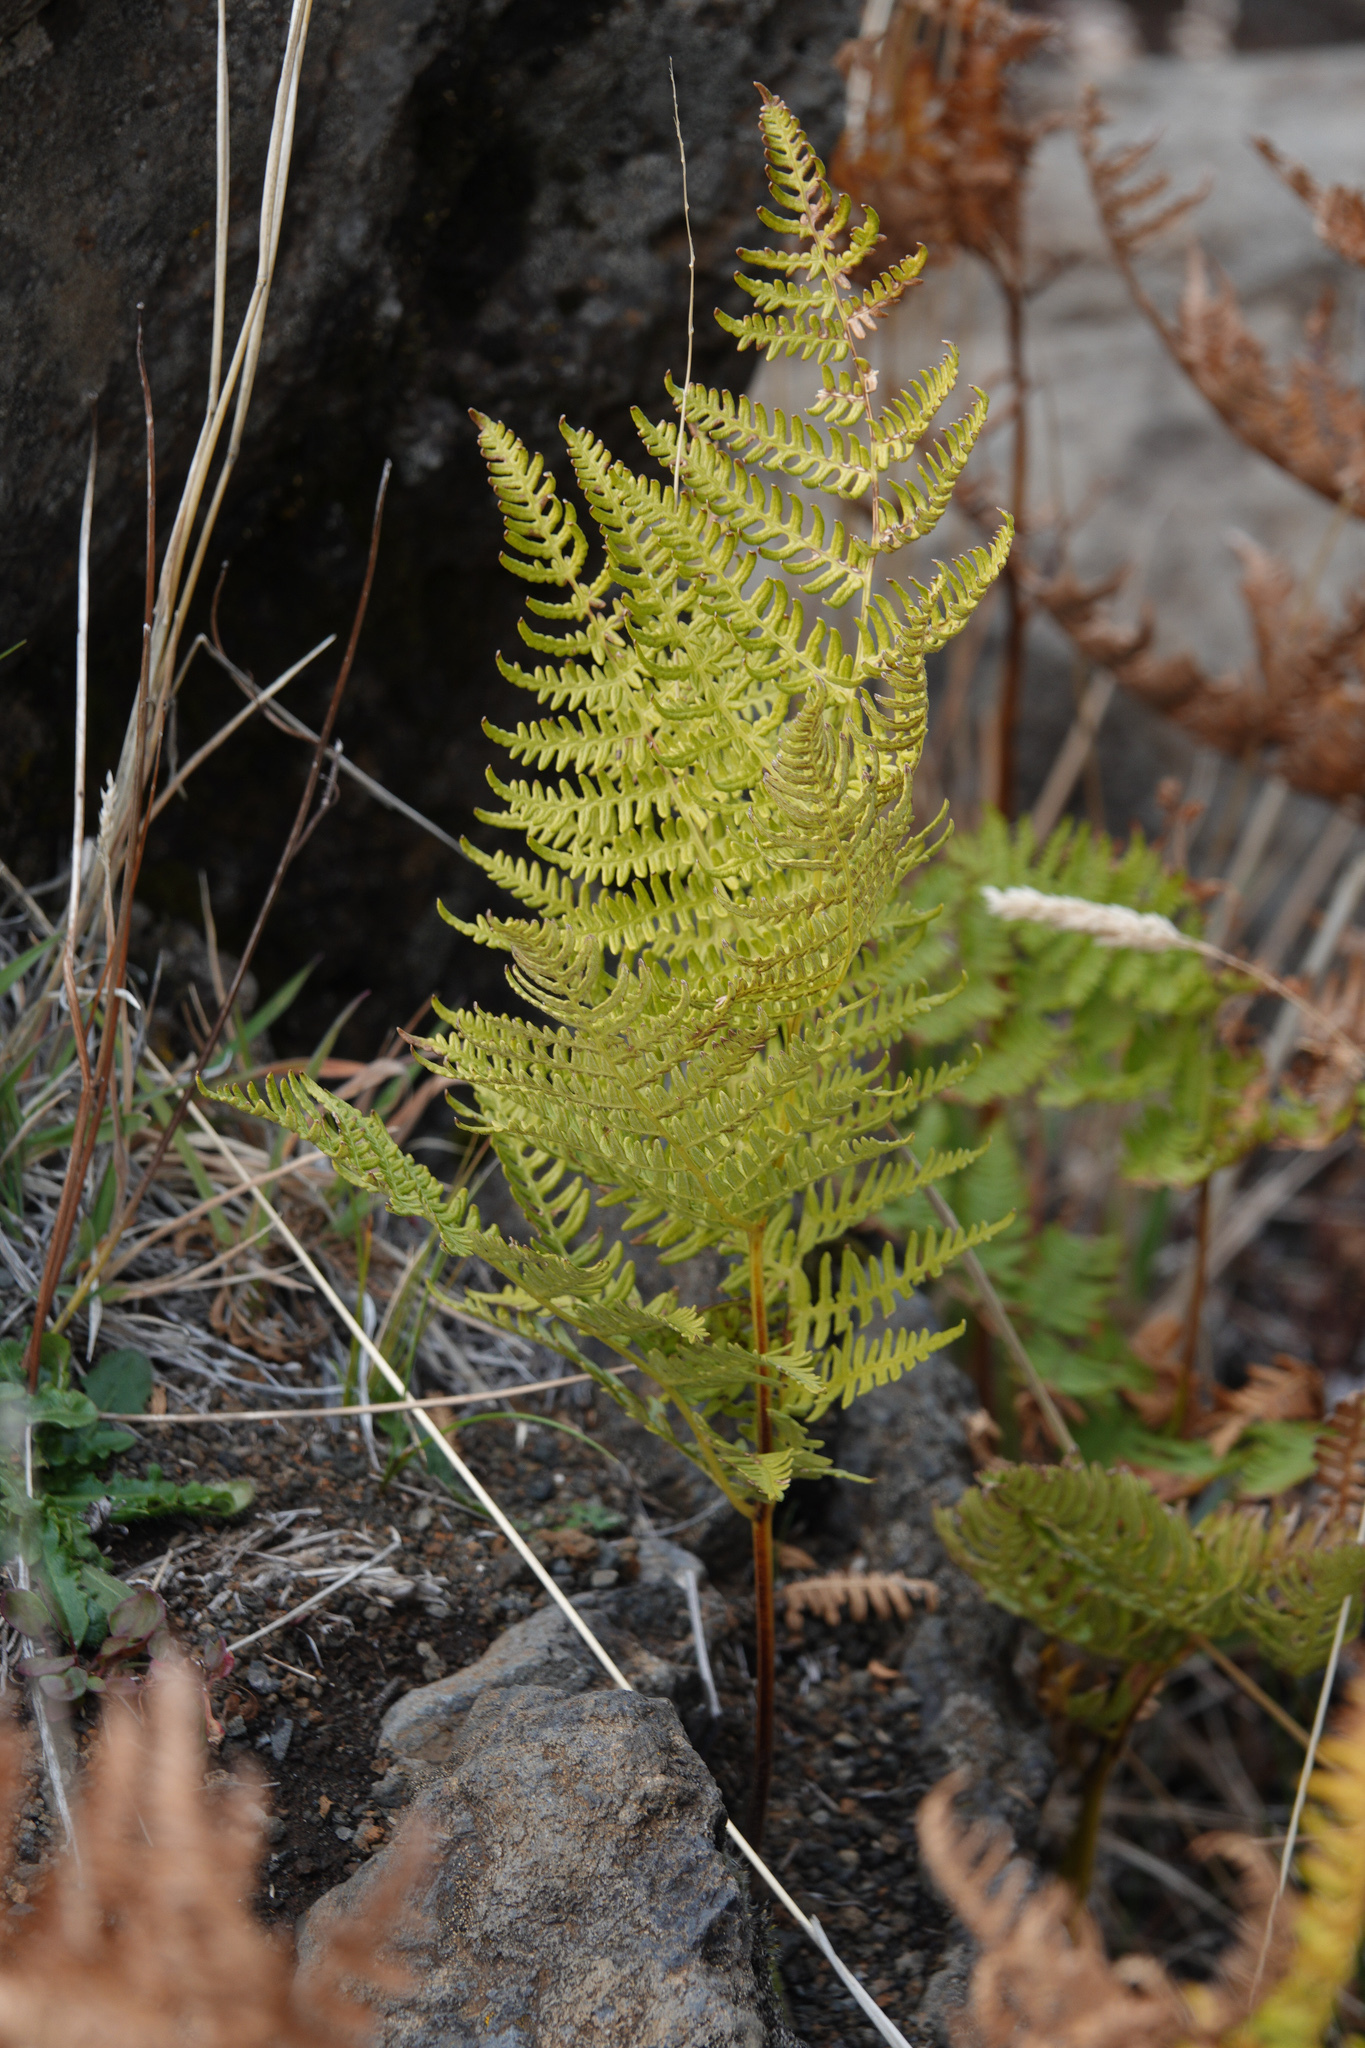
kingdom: Plantae
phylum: Tracheophyta
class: Polypodiopsida
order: Polypodiales
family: Dennstaedtiaceae
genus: Pteridium
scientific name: Pteridium aquilinum
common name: Bracken
